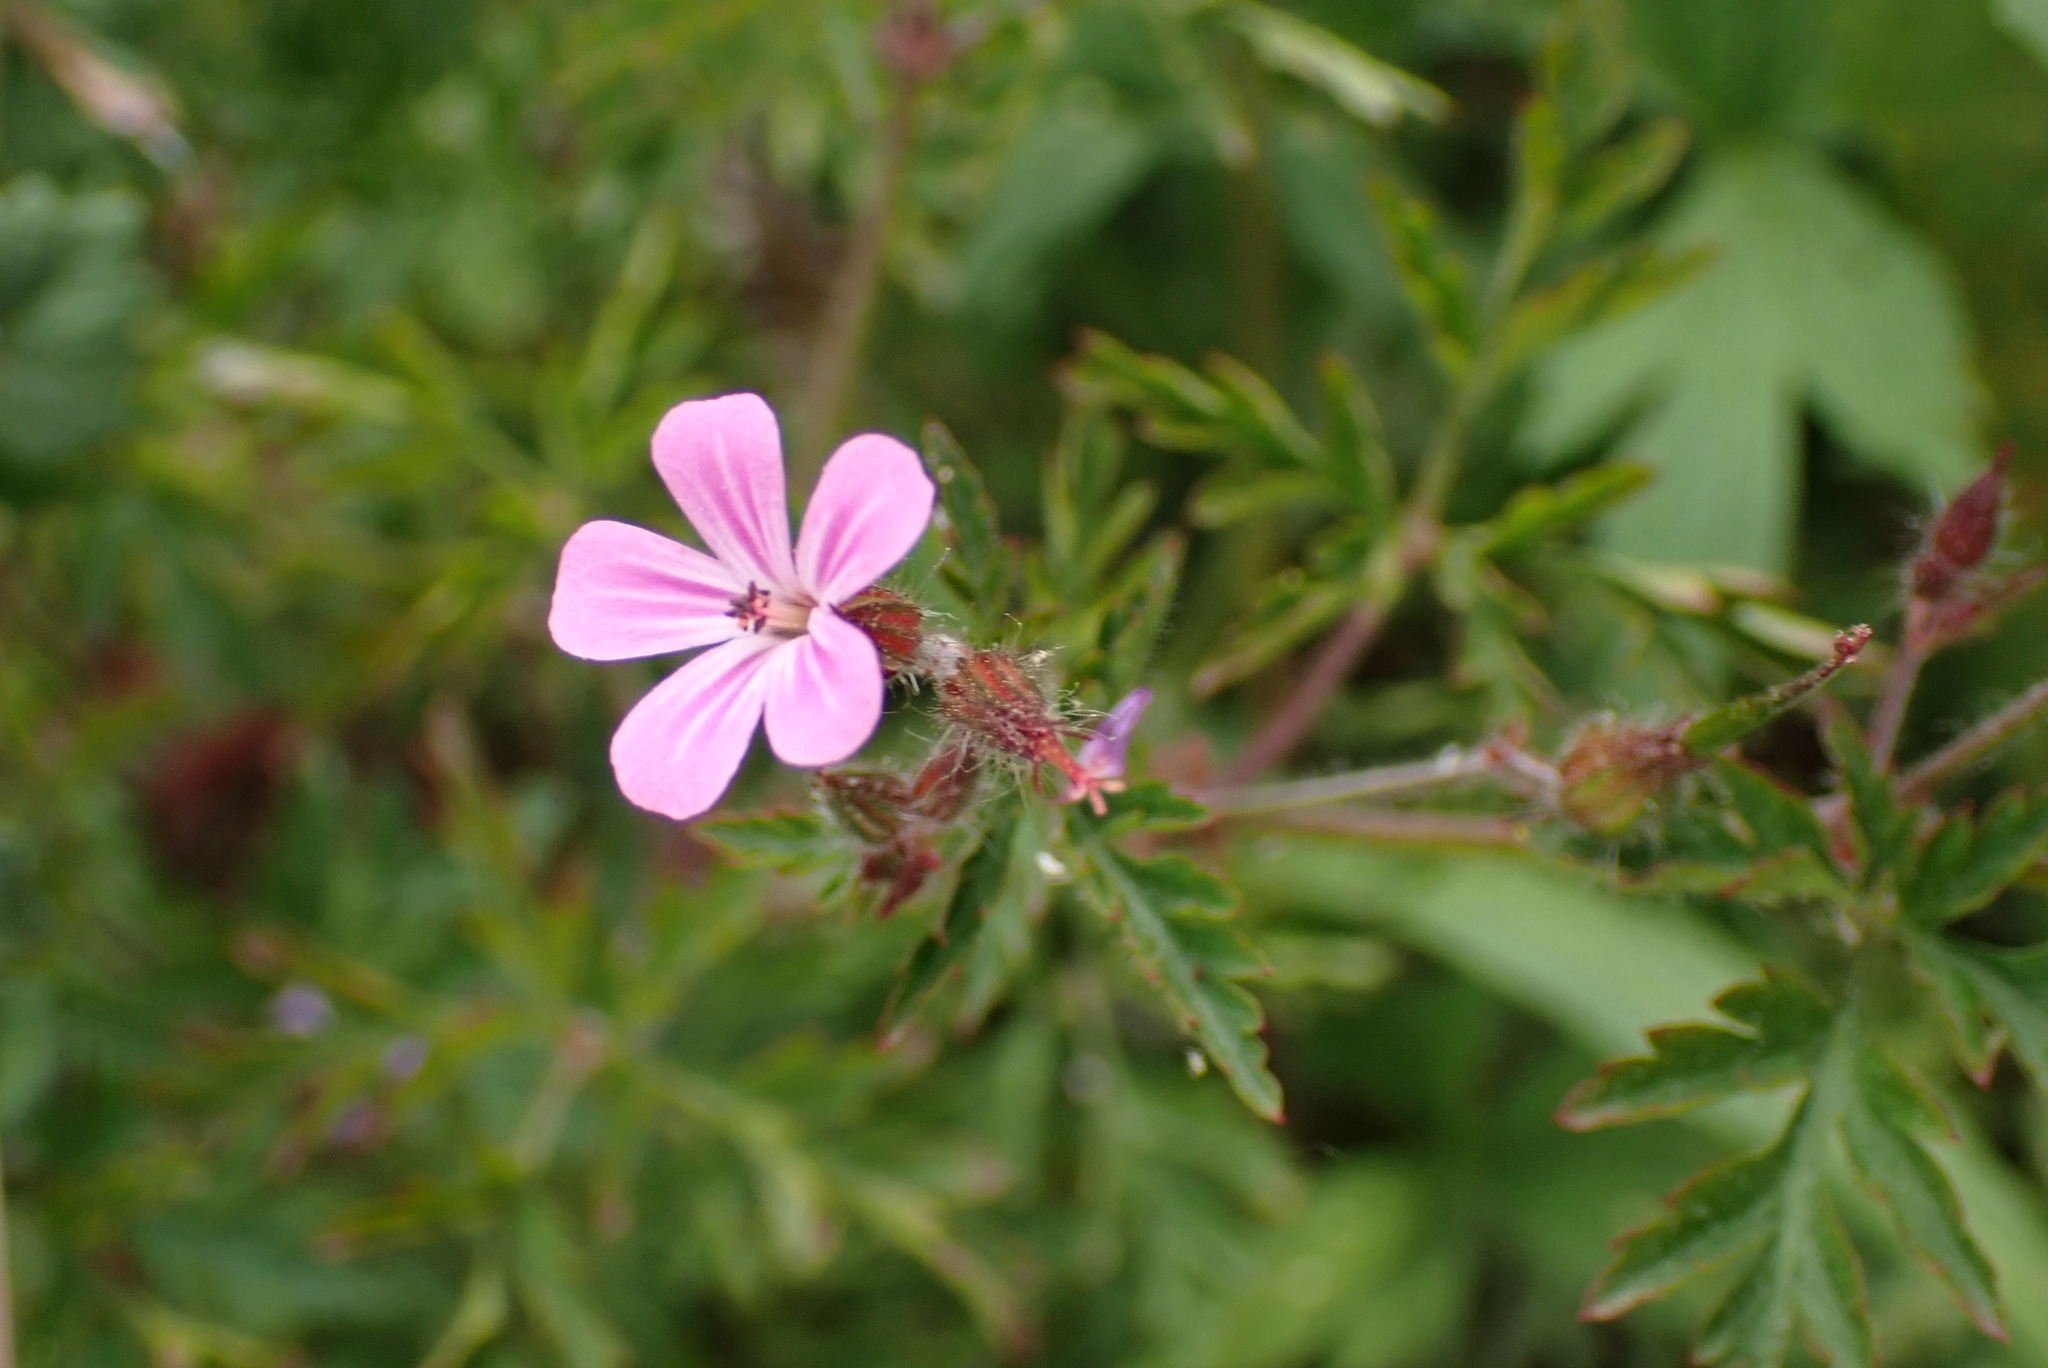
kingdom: Plantae
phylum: Tracheophyta
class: Magnoliopsida
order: Geraniales
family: Geraniaceae
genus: Geranium
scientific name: Geranium robertianum
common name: Herb-robert
